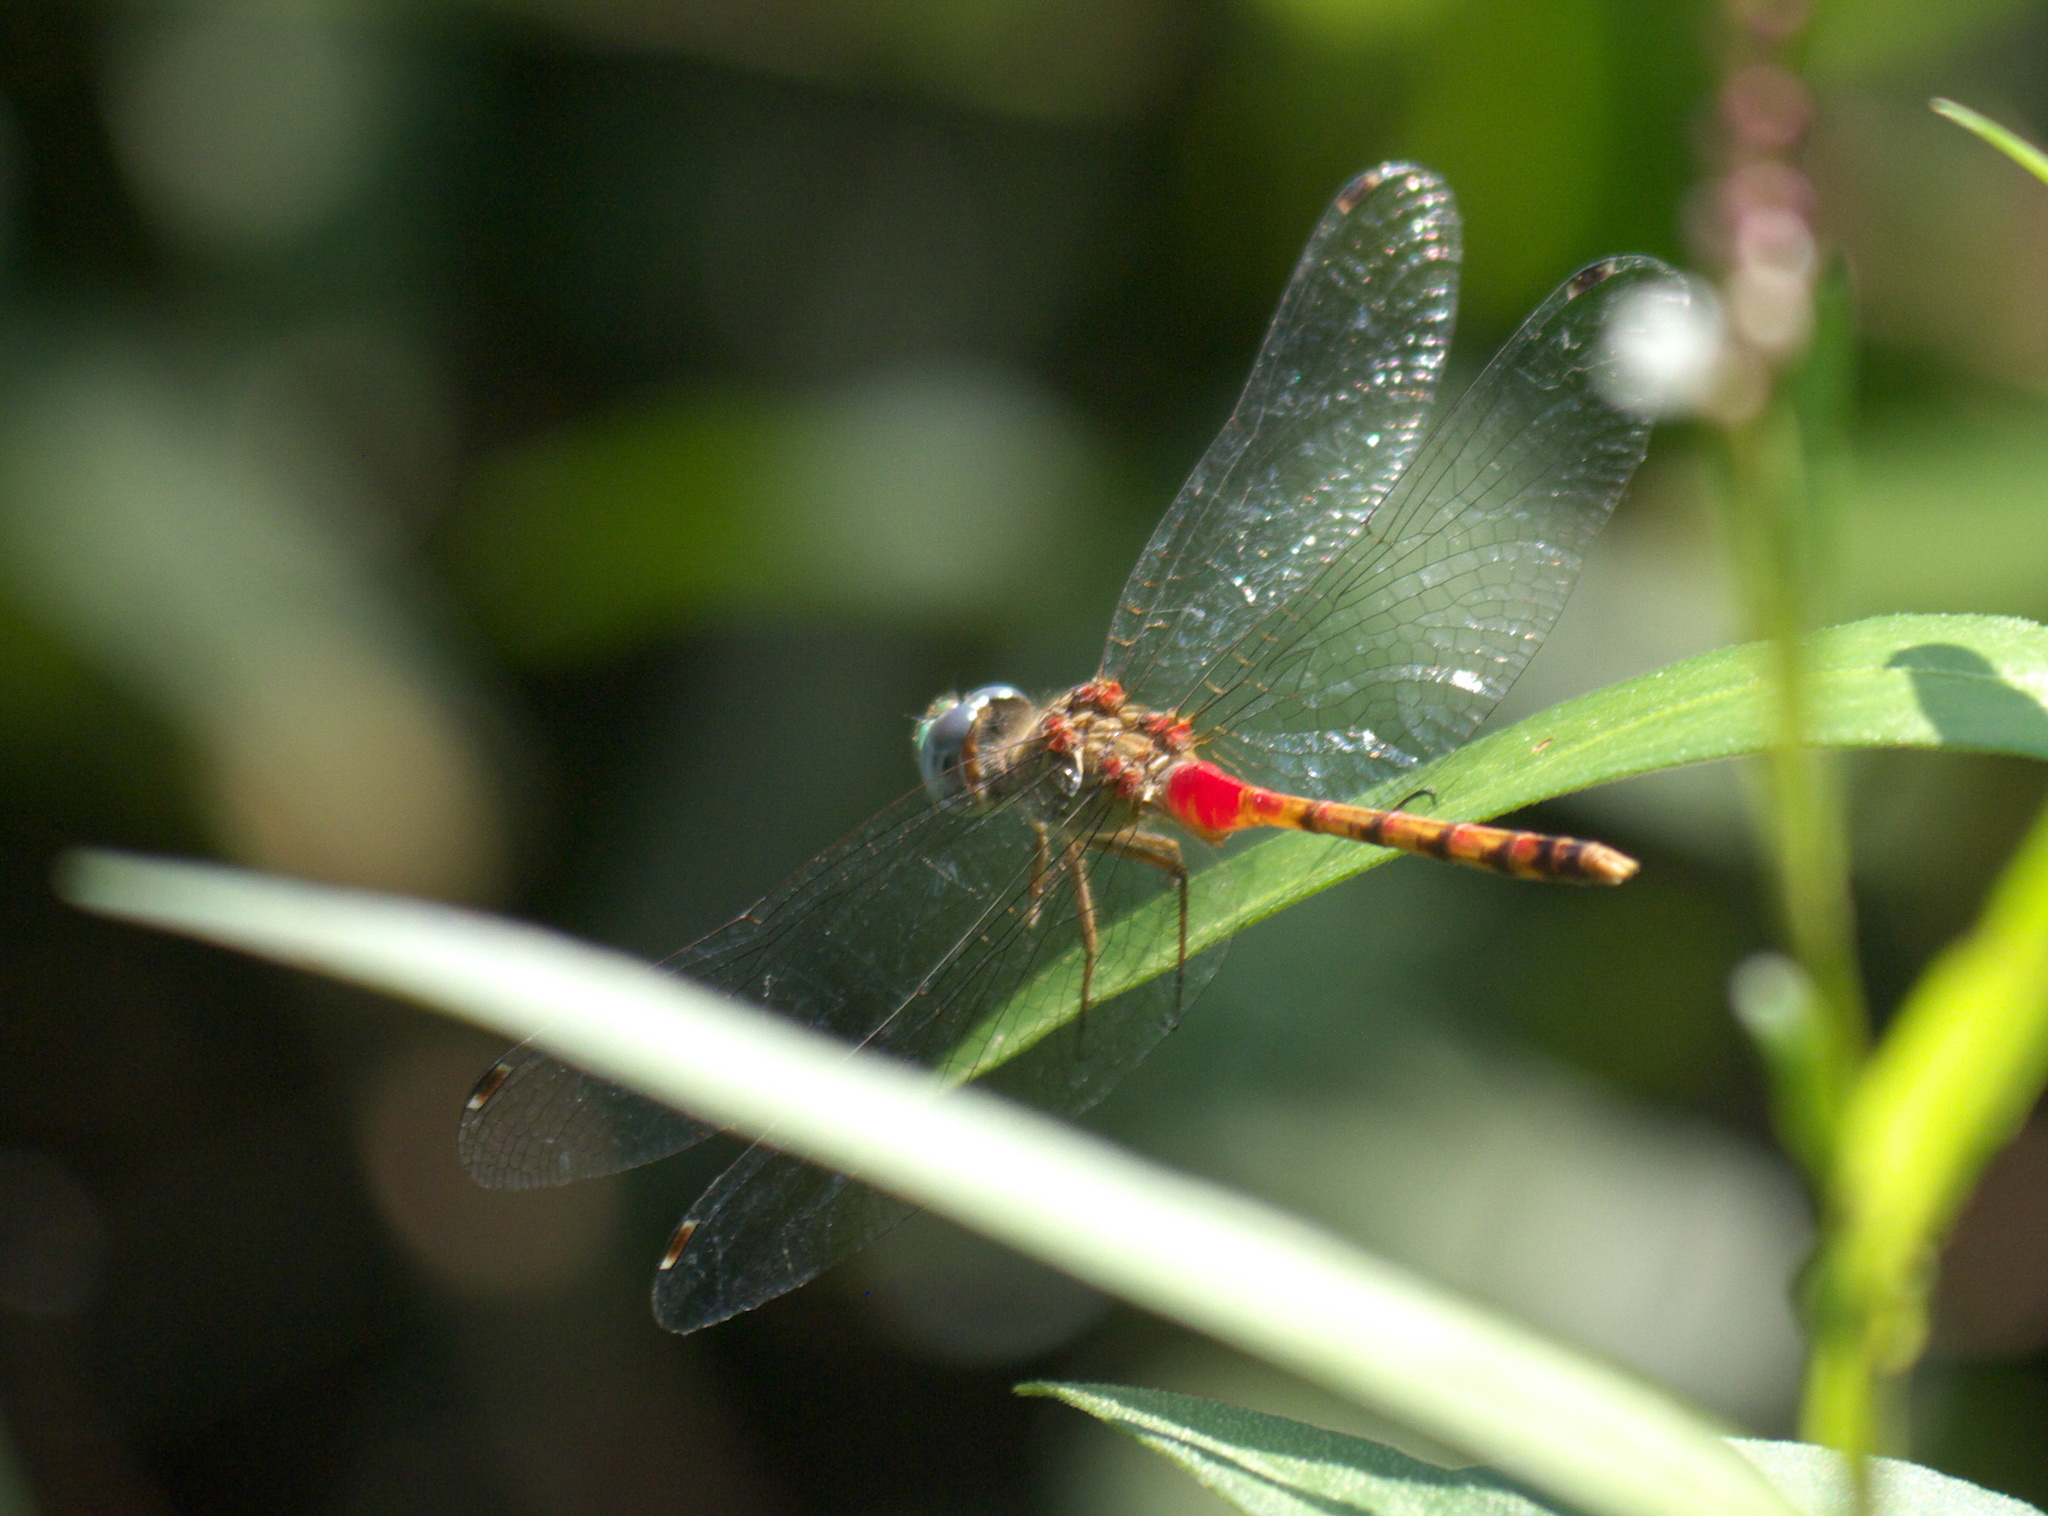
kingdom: Animalia
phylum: Arthropoda
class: Insecta
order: Odonata
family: Libellulidae
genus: Sympetrum
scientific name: Sympetrum ambiguum
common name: Blue-faced meadowhawk
